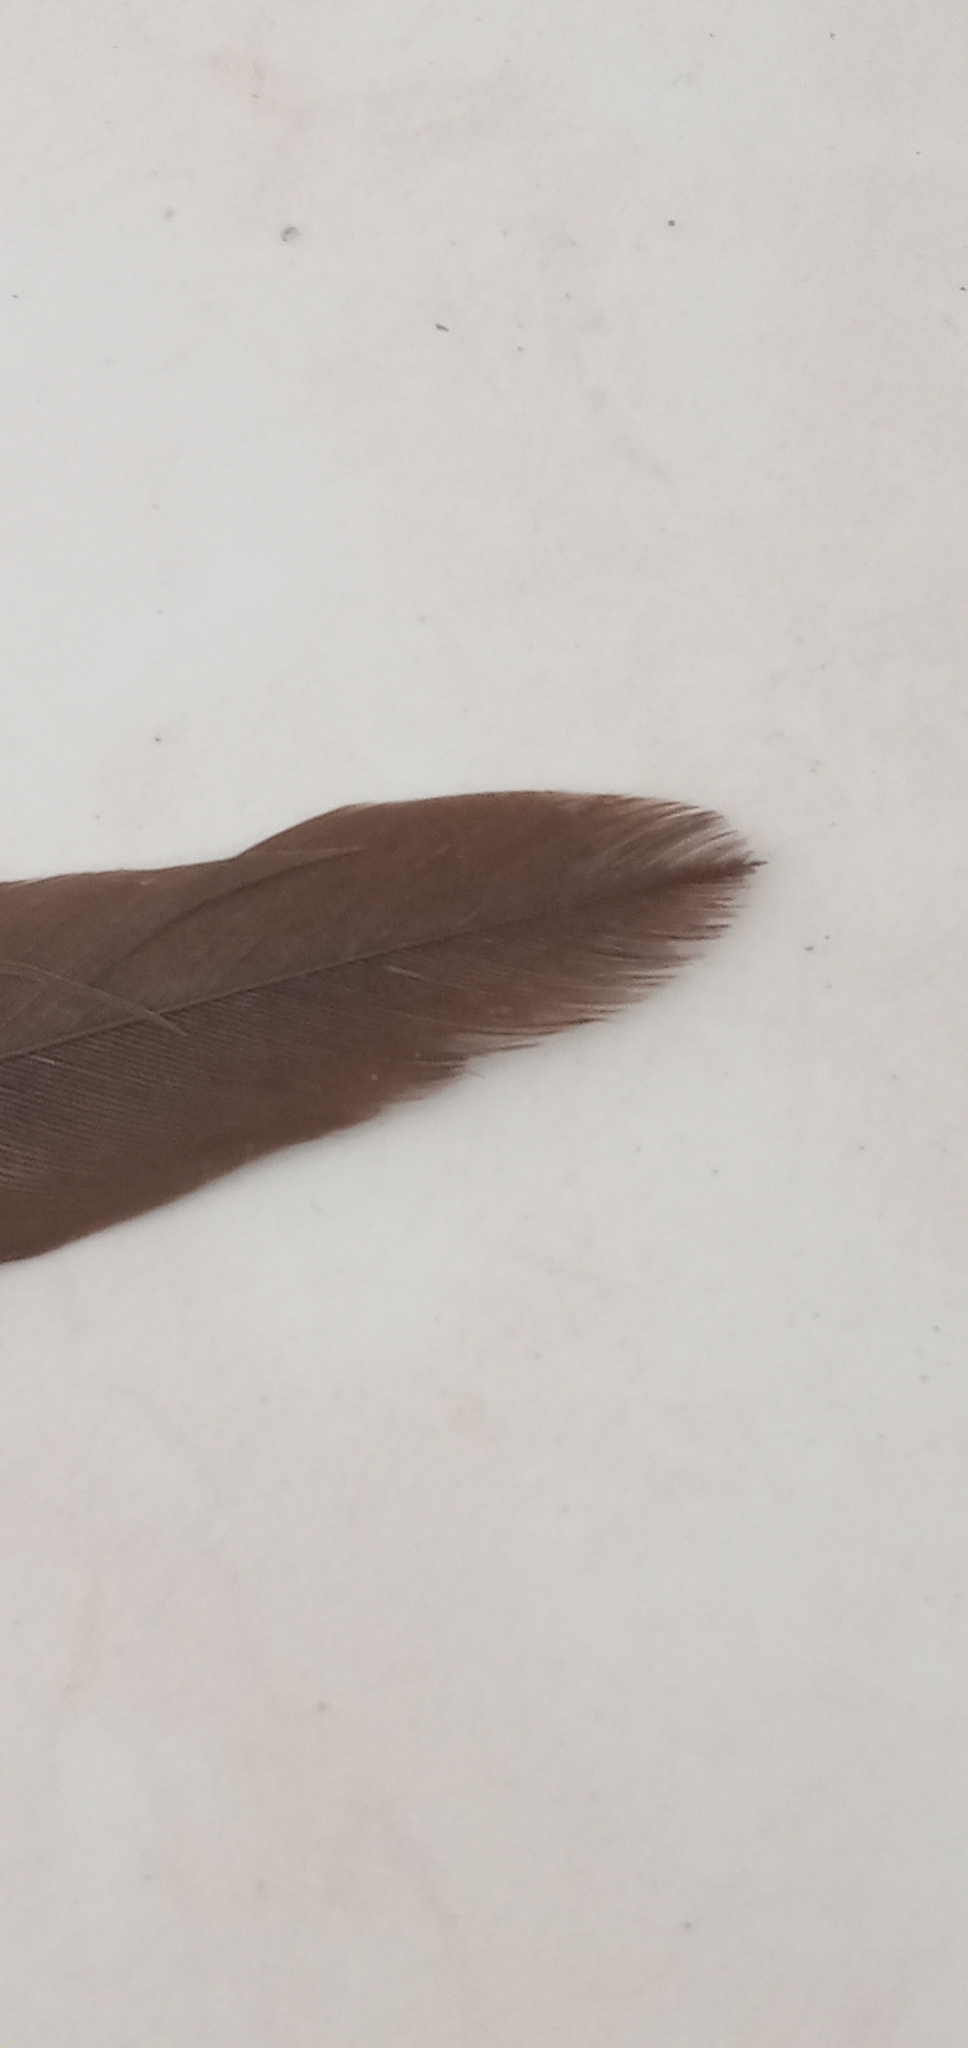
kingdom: Animalia
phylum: Chordata
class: Aves
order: Columbiformes
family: Columbidae
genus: Spilopelia
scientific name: Spilopelia chinensis
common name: Spotted dove
